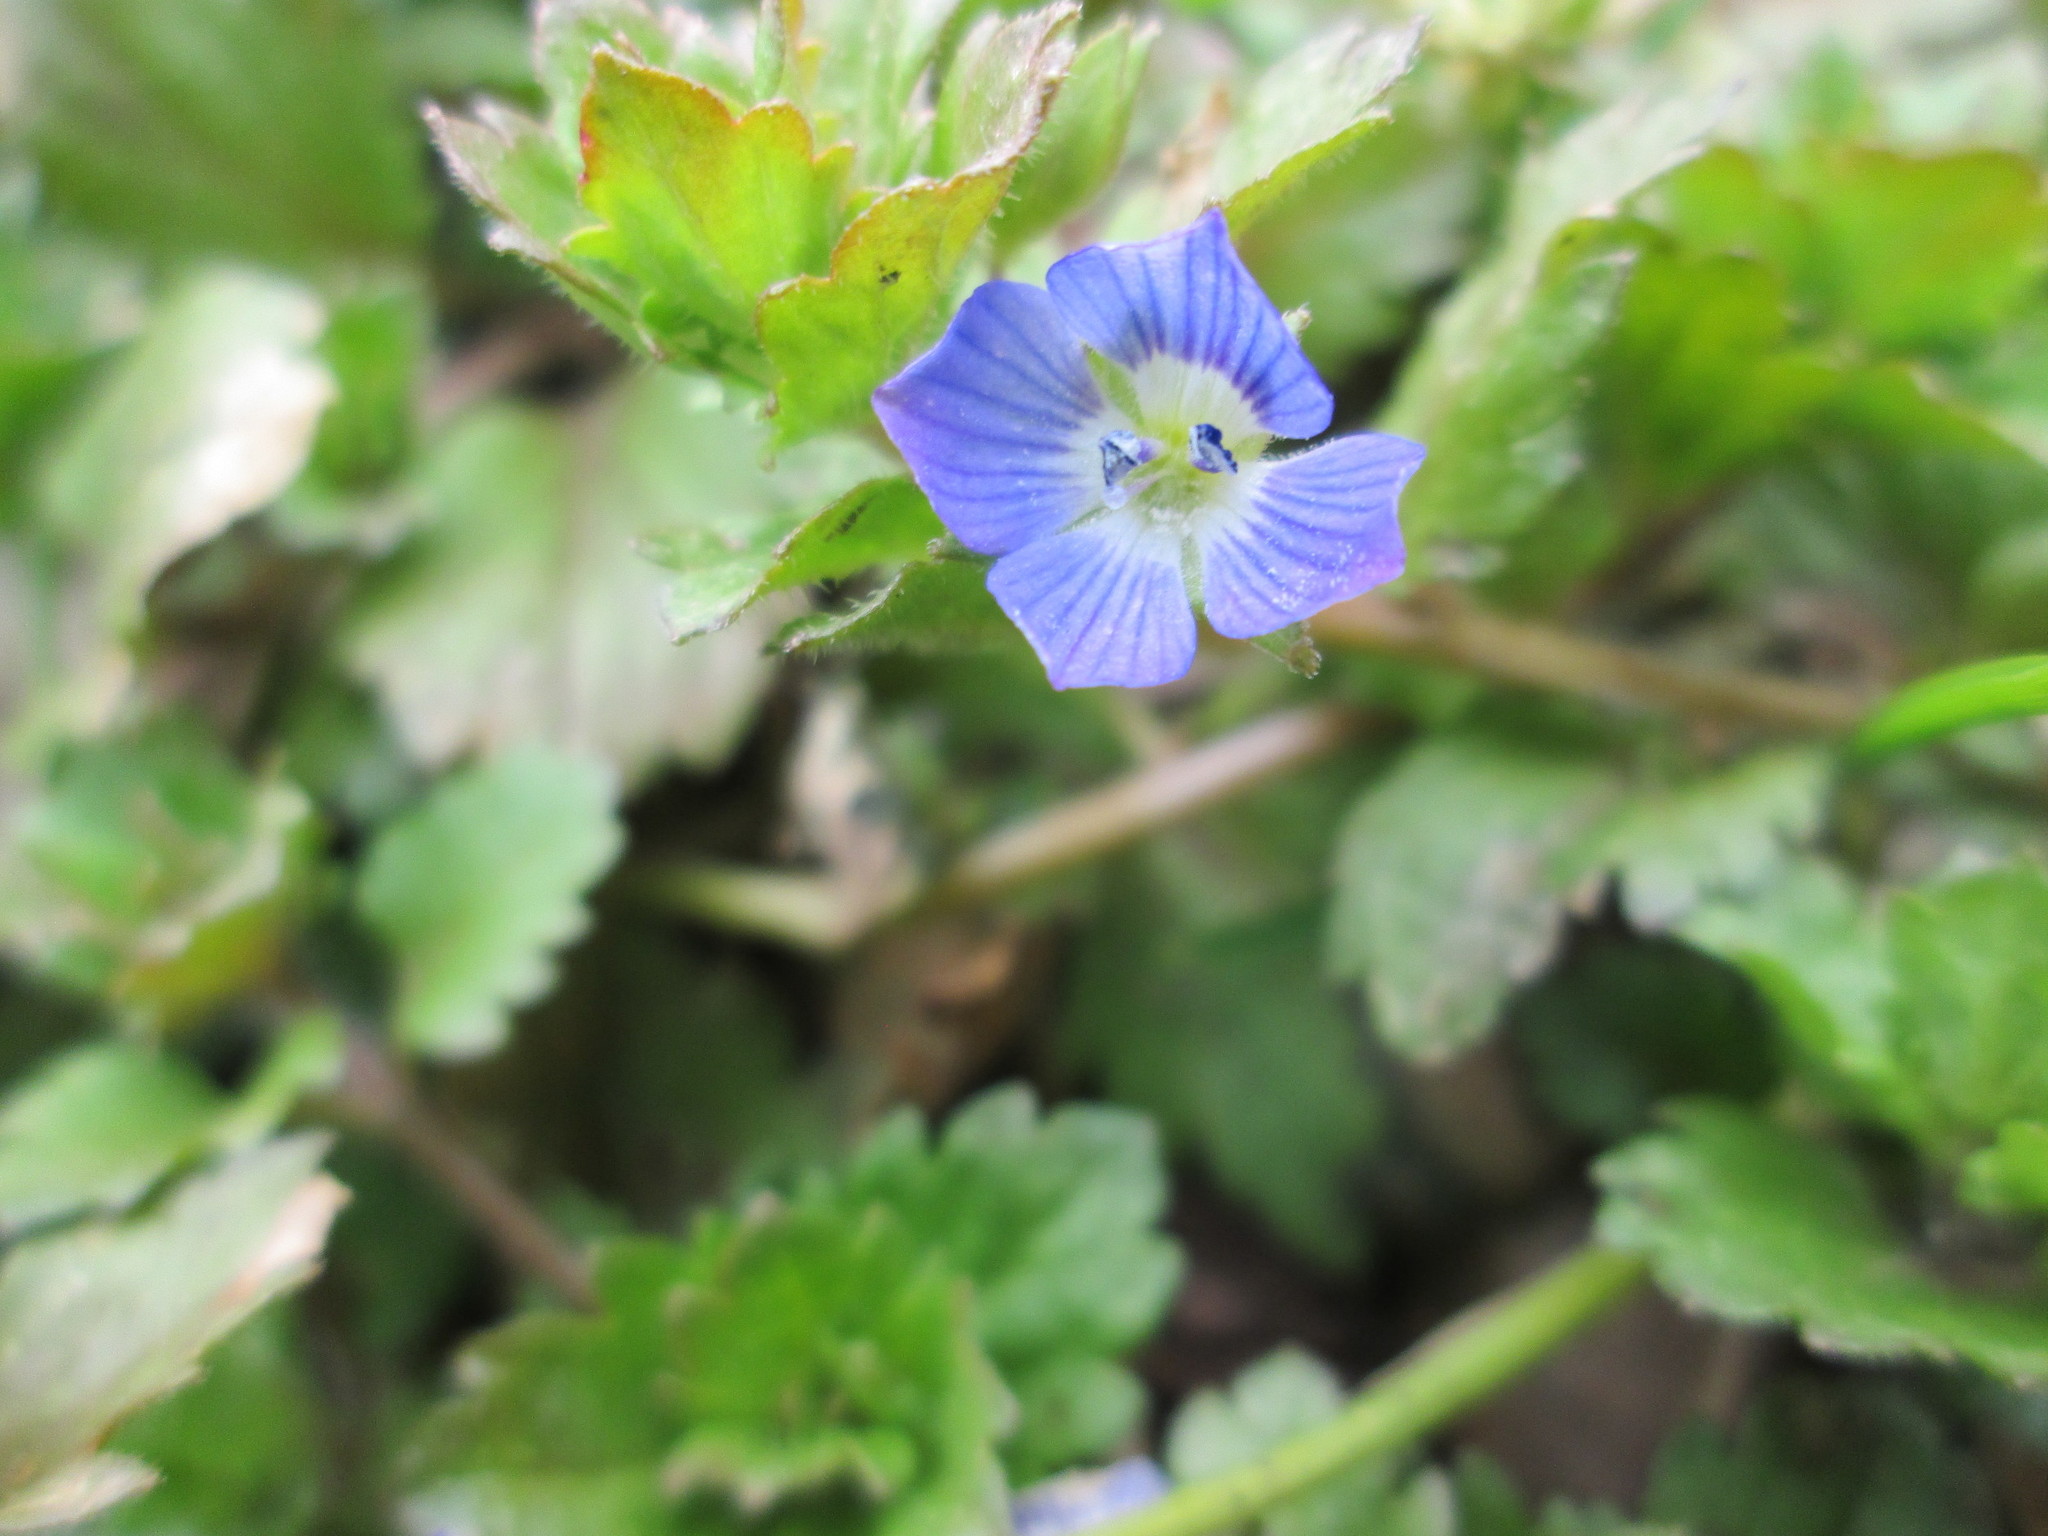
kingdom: Plantae
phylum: Tracheophyta
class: Magnoliopsida
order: Lamiales
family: Plantaginaceae
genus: Veronica
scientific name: Veronica persica
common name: Common field-speedwell
